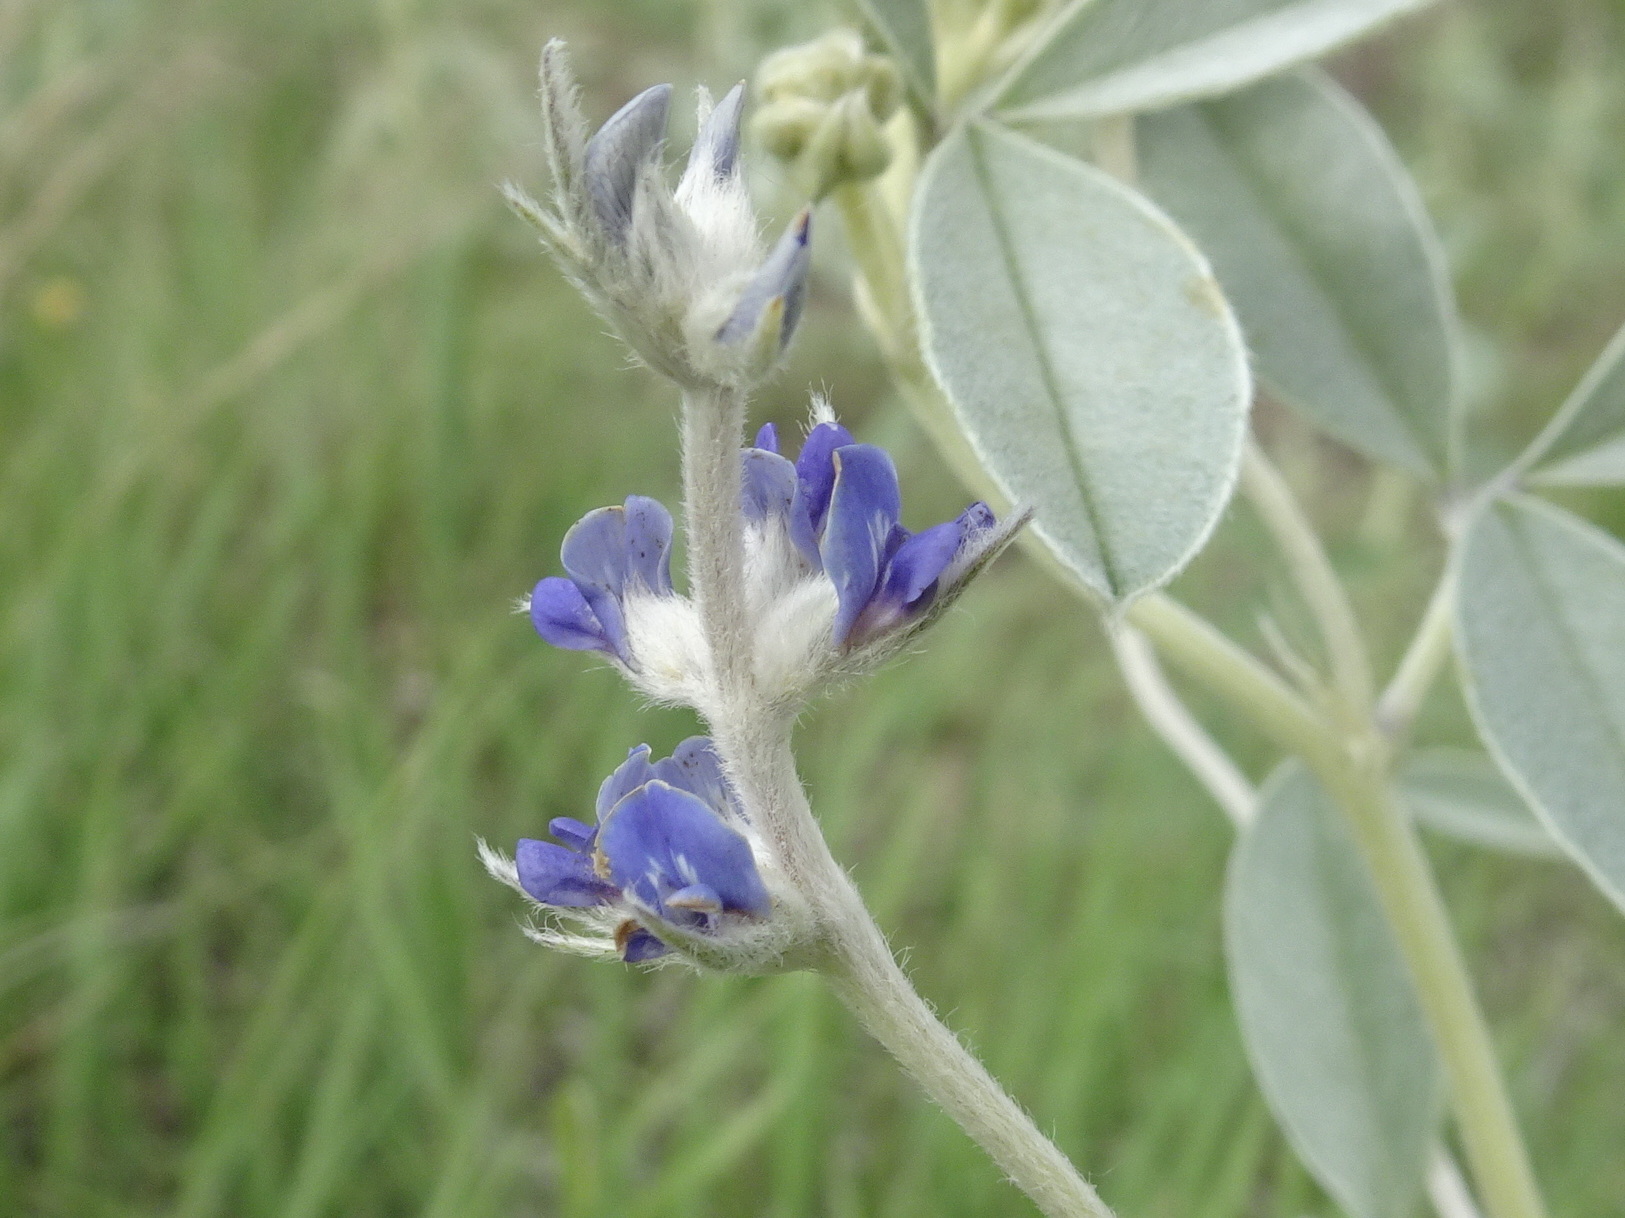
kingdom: Plantae
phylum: Tracheophyta
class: Magnoliopsida
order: Fabales
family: Fabaceae
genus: Pediomelum
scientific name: Pediomelum argophyllum
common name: Silver-leaved indian breadroot
